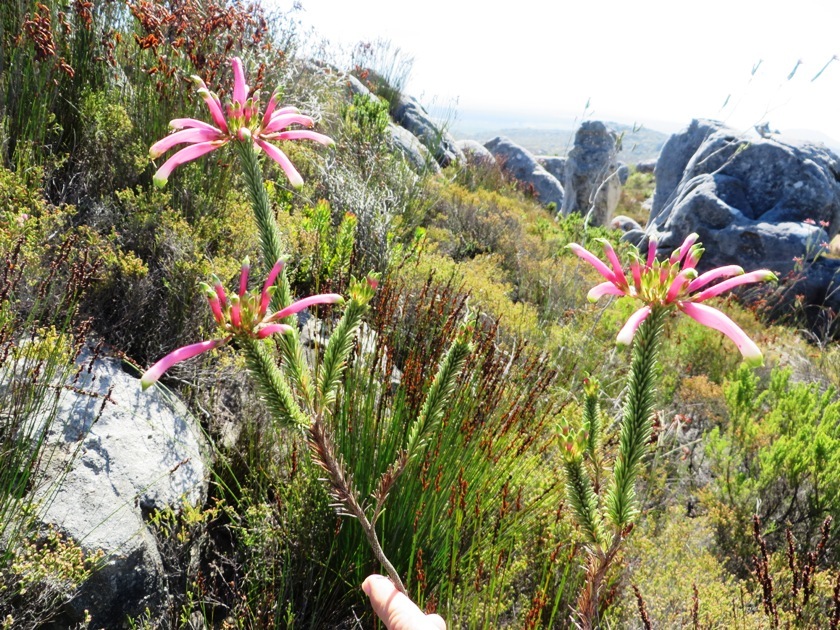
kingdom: Plantae
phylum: Tracheophyta
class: Magnoliopsida
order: Ericales
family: Ericaceae
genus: Erica
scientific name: Erica fascicularis
